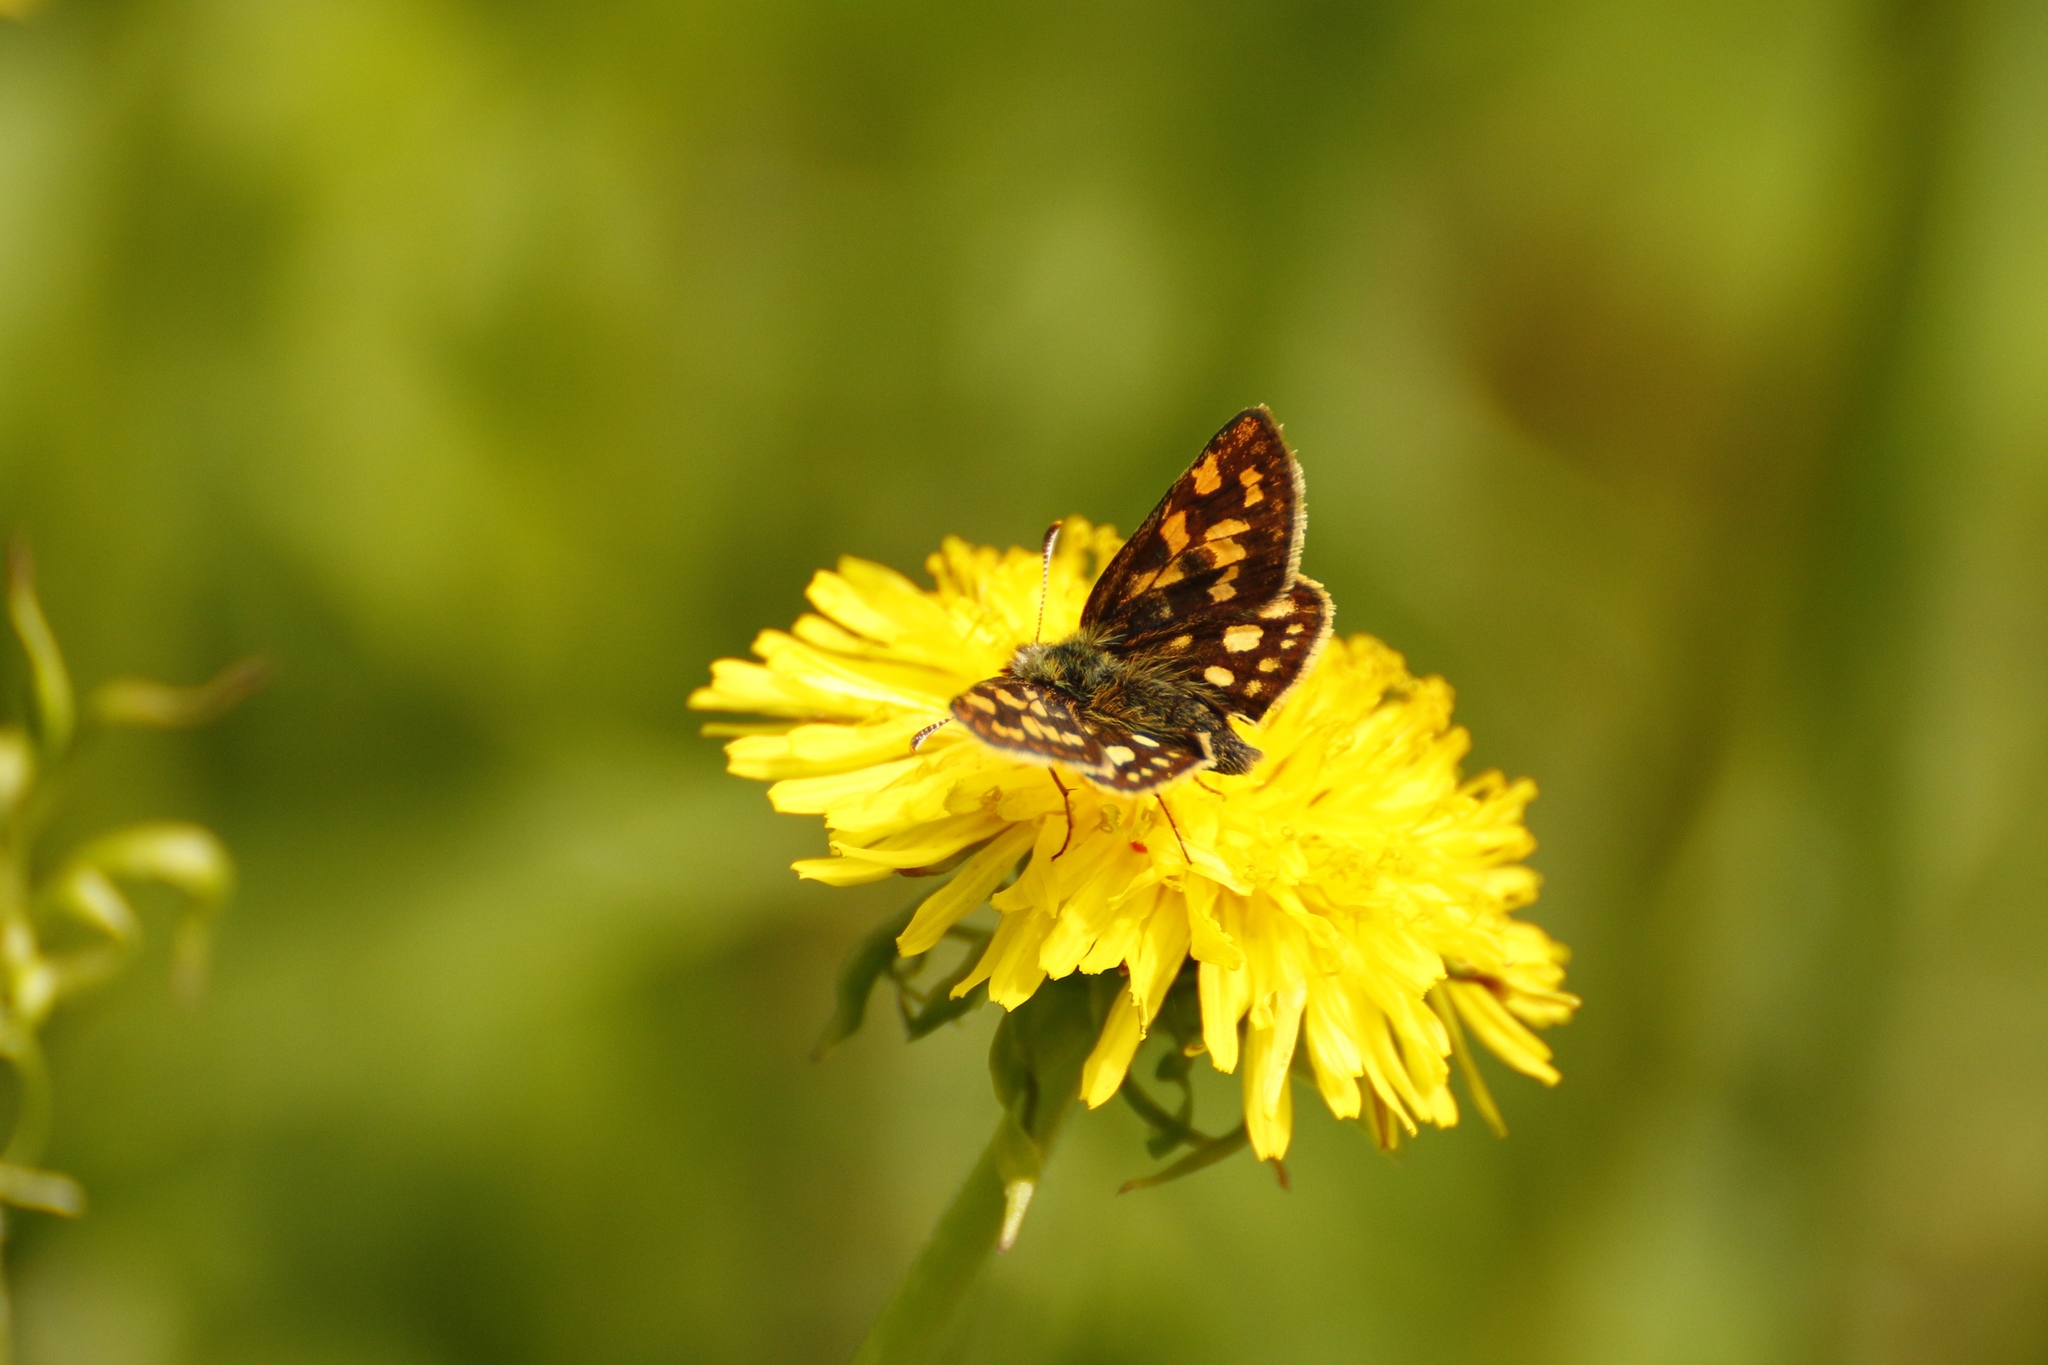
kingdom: Animalia
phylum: Arthropoda
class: Insecta
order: Lepidoptera
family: Hesperiidae
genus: Carterocephalus
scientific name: Carterocephalus palaemon
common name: Chequered skipper
